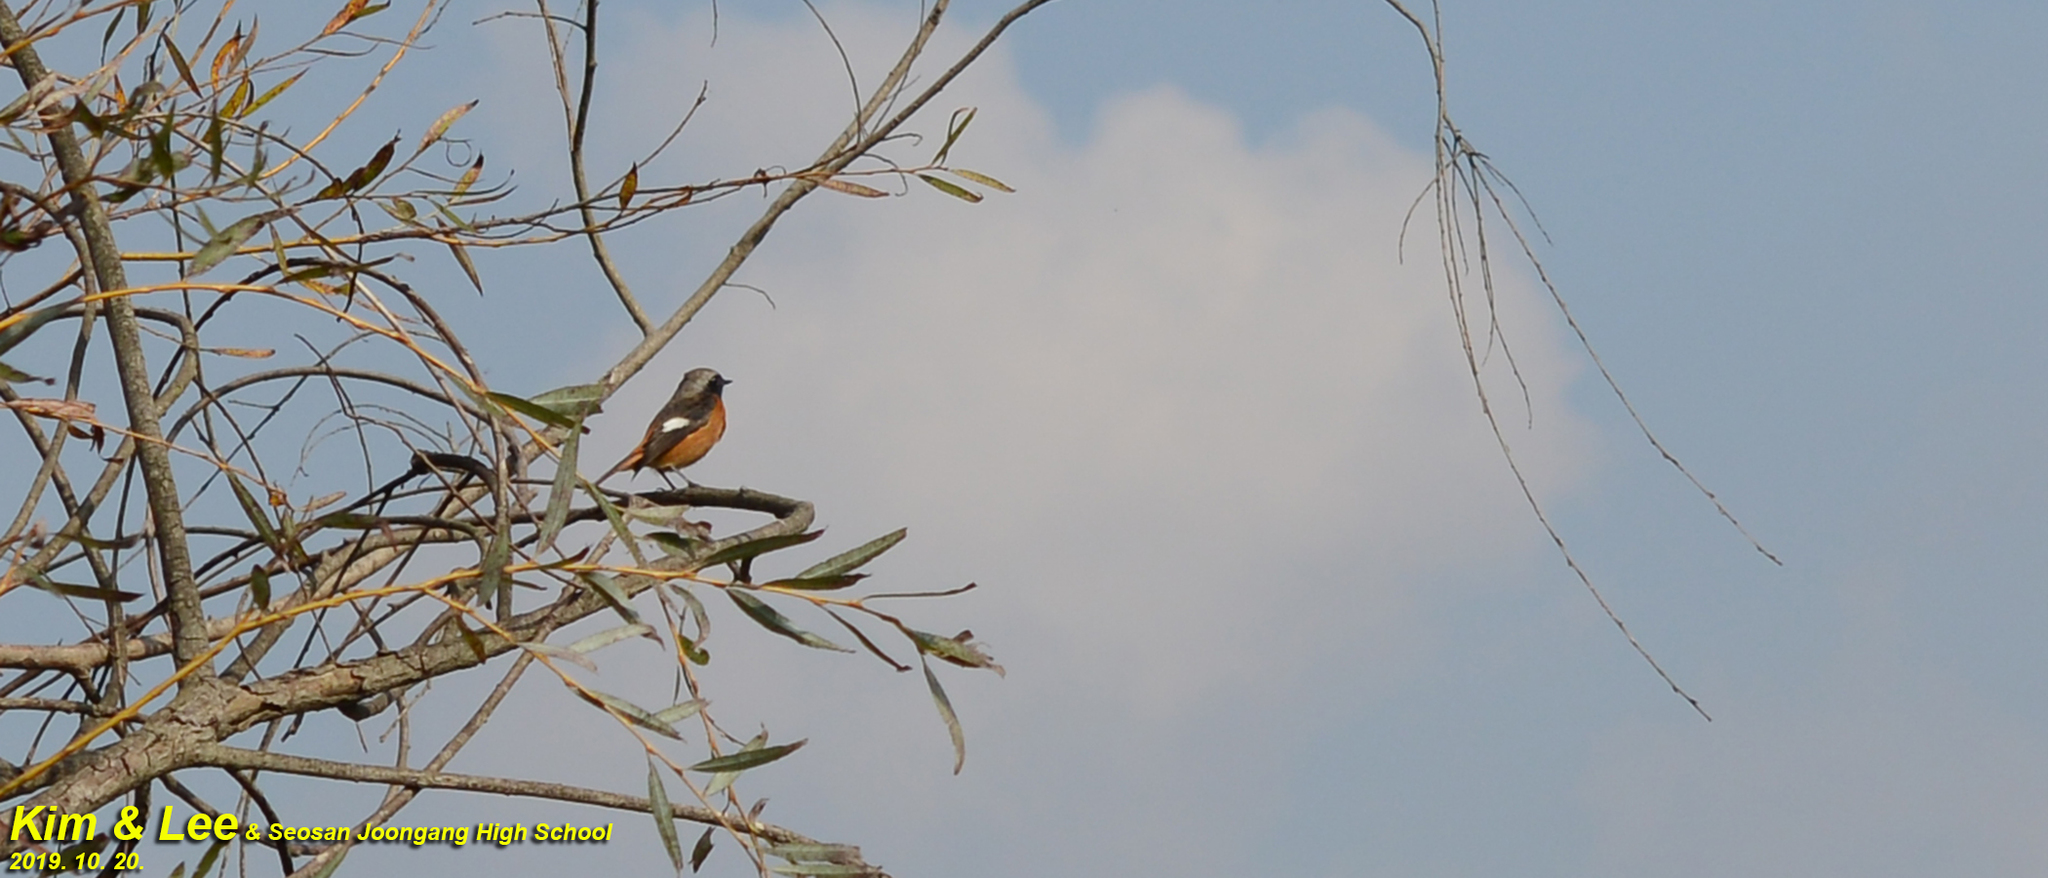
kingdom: Animalia
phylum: Chordata
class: Aves
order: Passeriformes
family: Muscicapidae
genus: Phoenicurus
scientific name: Phoenicurus auroreus
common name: Daurian redstart
